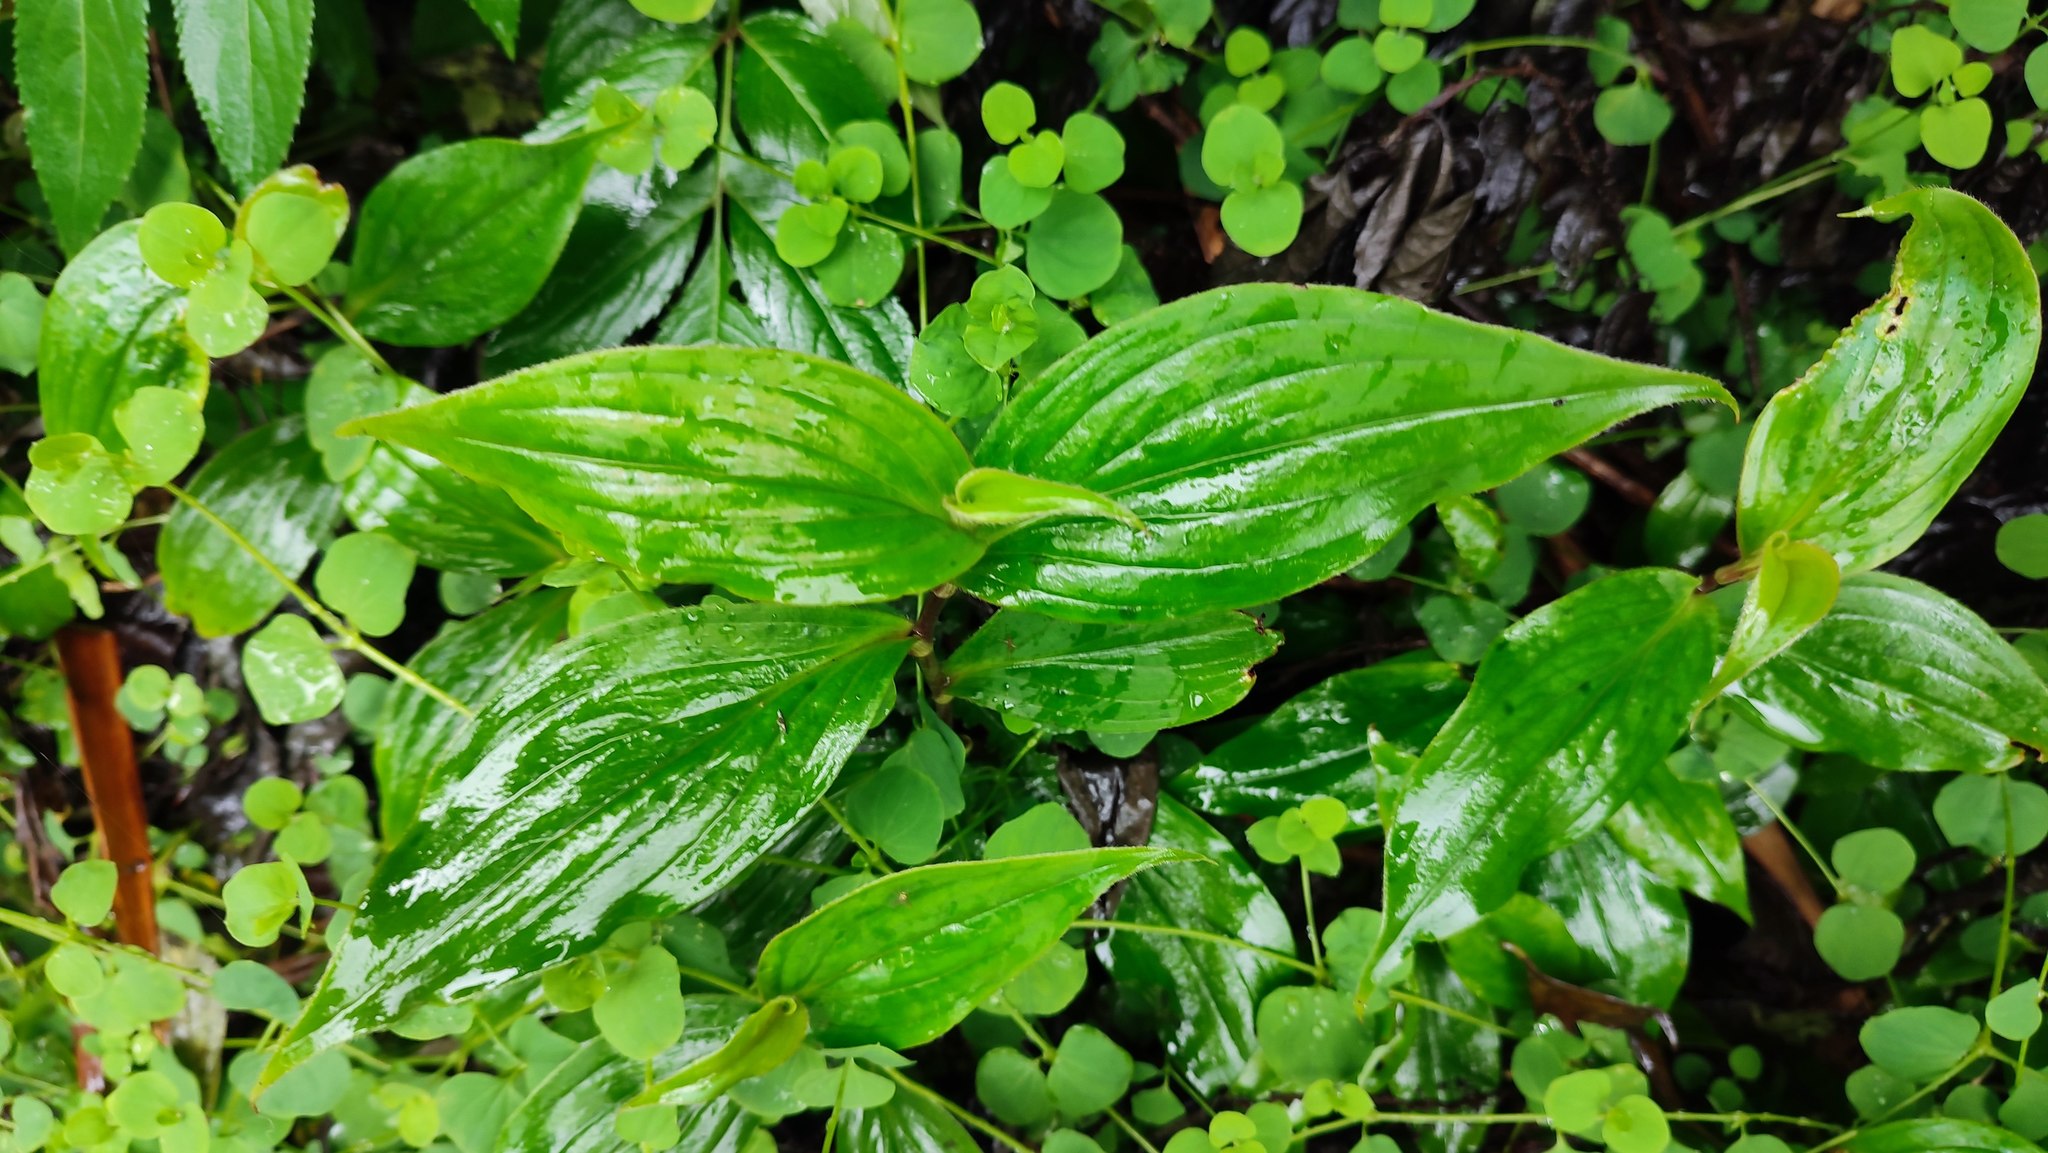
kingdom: Plantae
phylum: Tracheophyta
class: Liliopsida
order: Liliales
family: Liliaceae
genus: Tricyrtis
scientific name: Tricyrtis formosana
